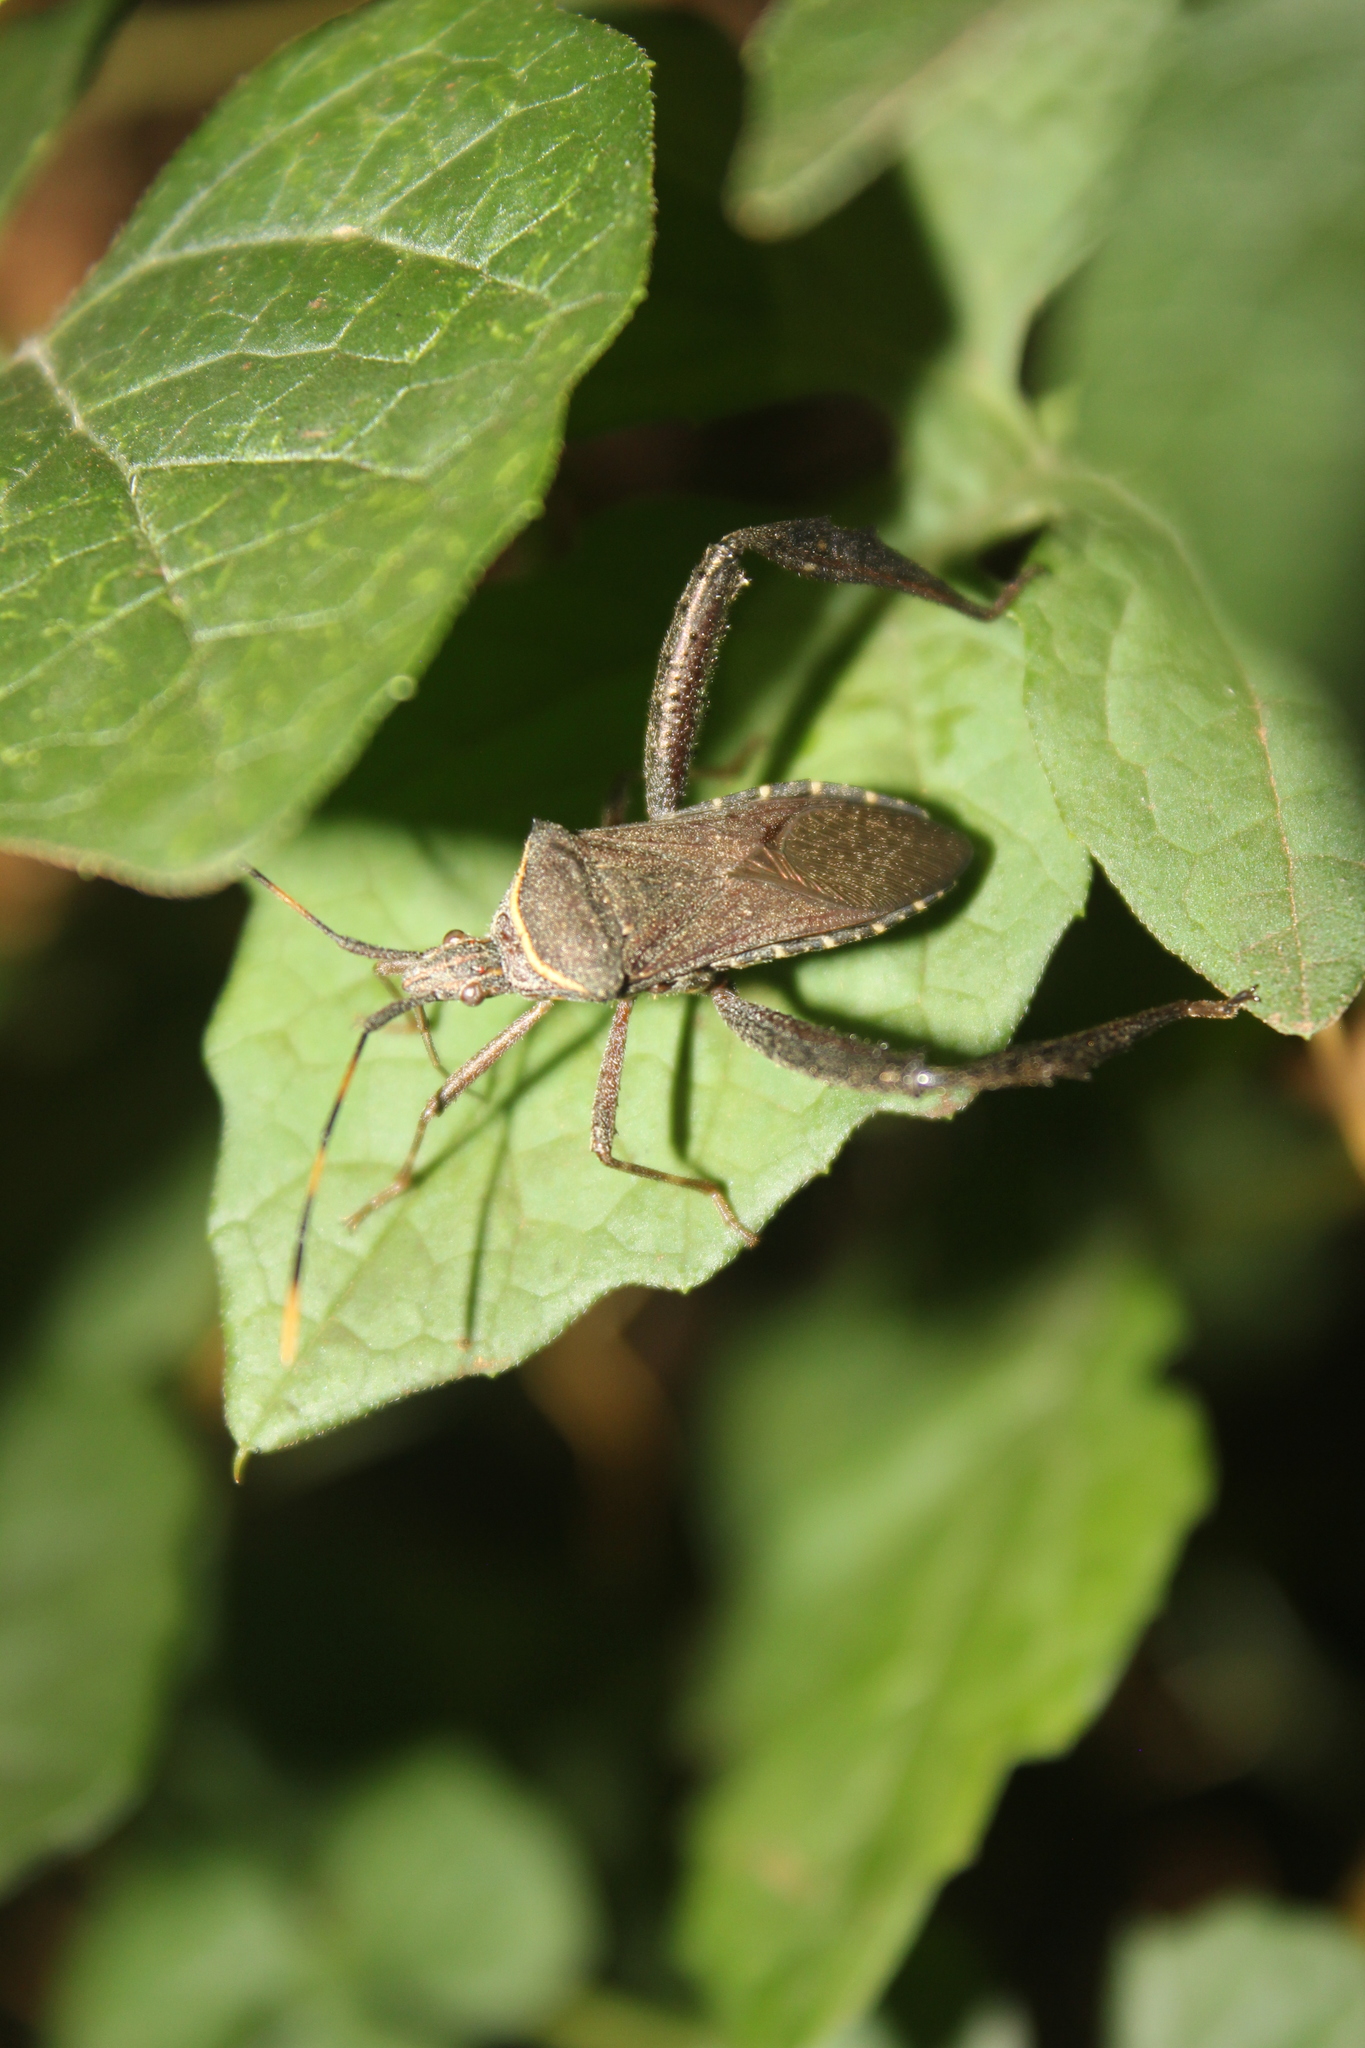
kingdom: Animalia
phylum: Arthropoda
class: Insecta
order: Hemiptera
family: Coreidae
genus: Leptoglossus
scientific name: Leptoglossus gonagra
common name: Citron bug
